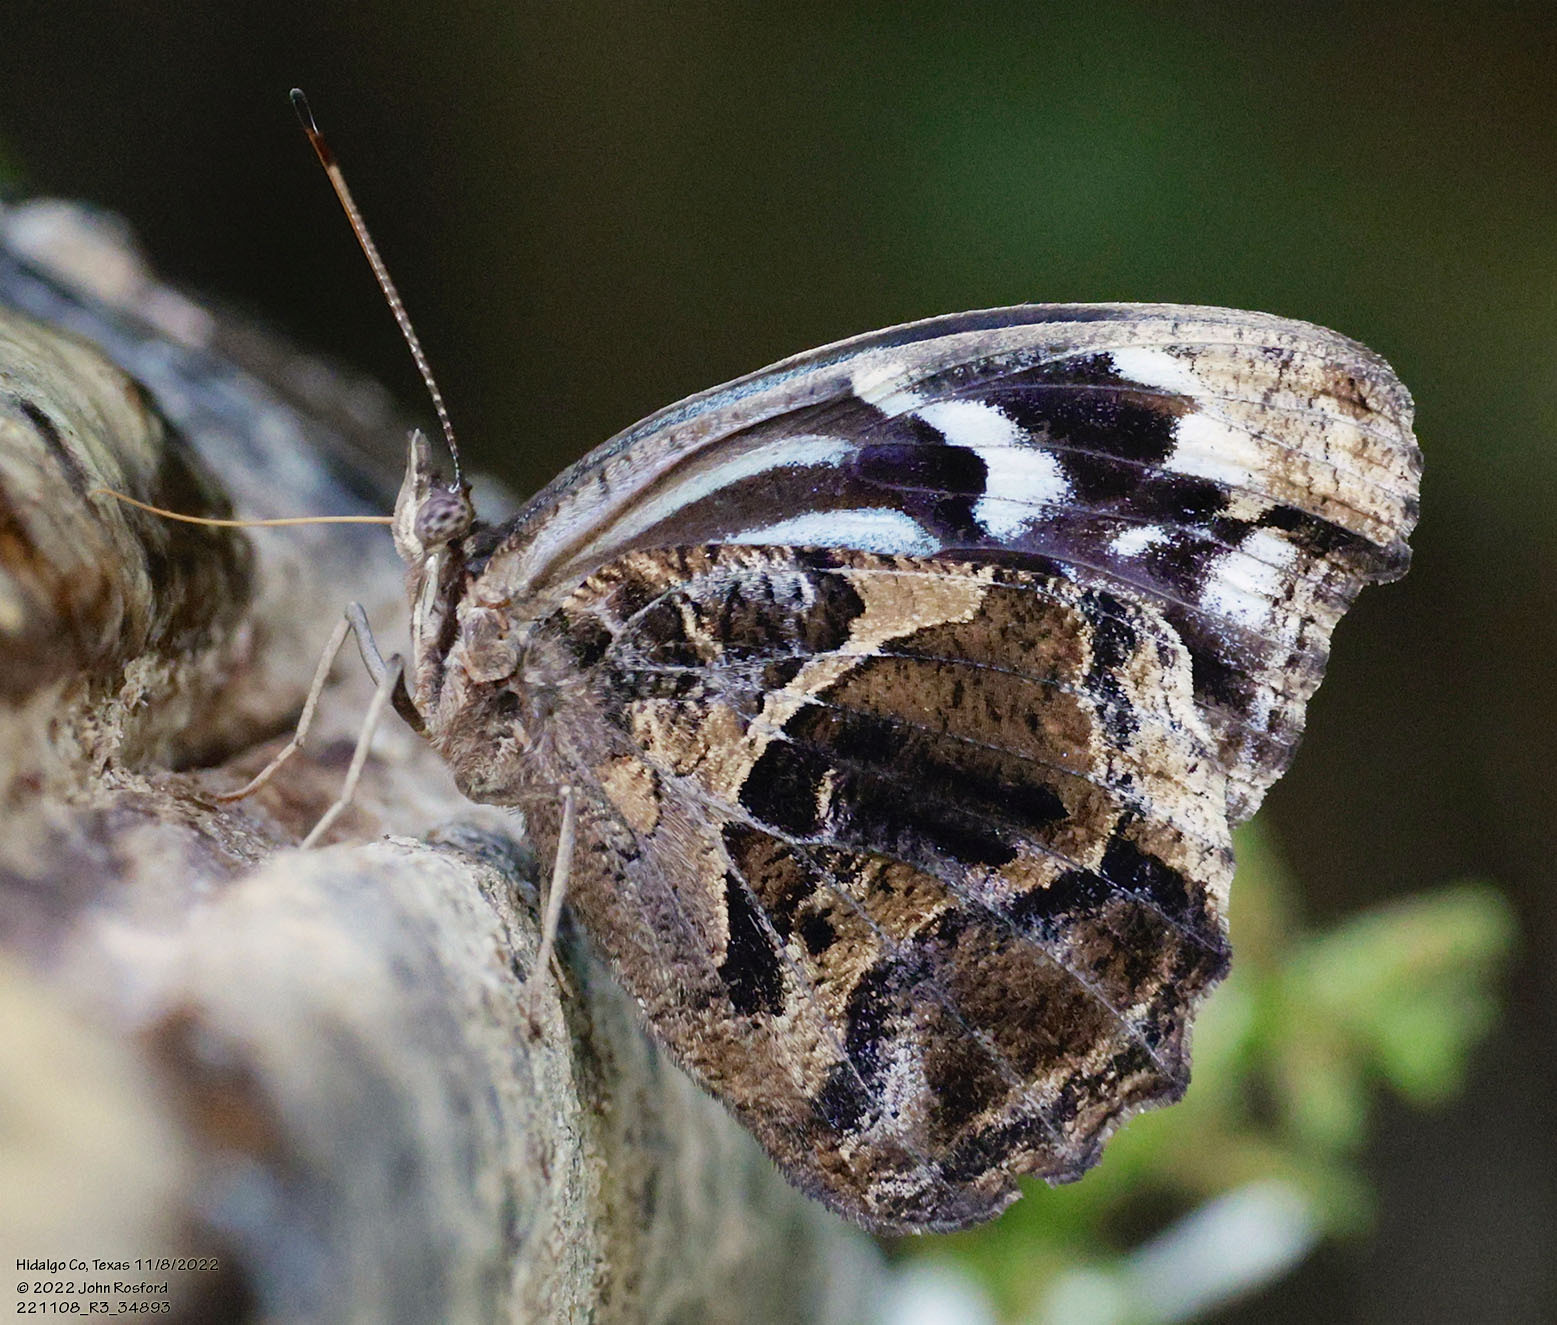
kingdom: Animalia
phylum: Arthropoda
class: Insecta
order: Lepidoptera
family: Nymphalidae
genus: Myscelia
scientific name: Myscelia ethusa
